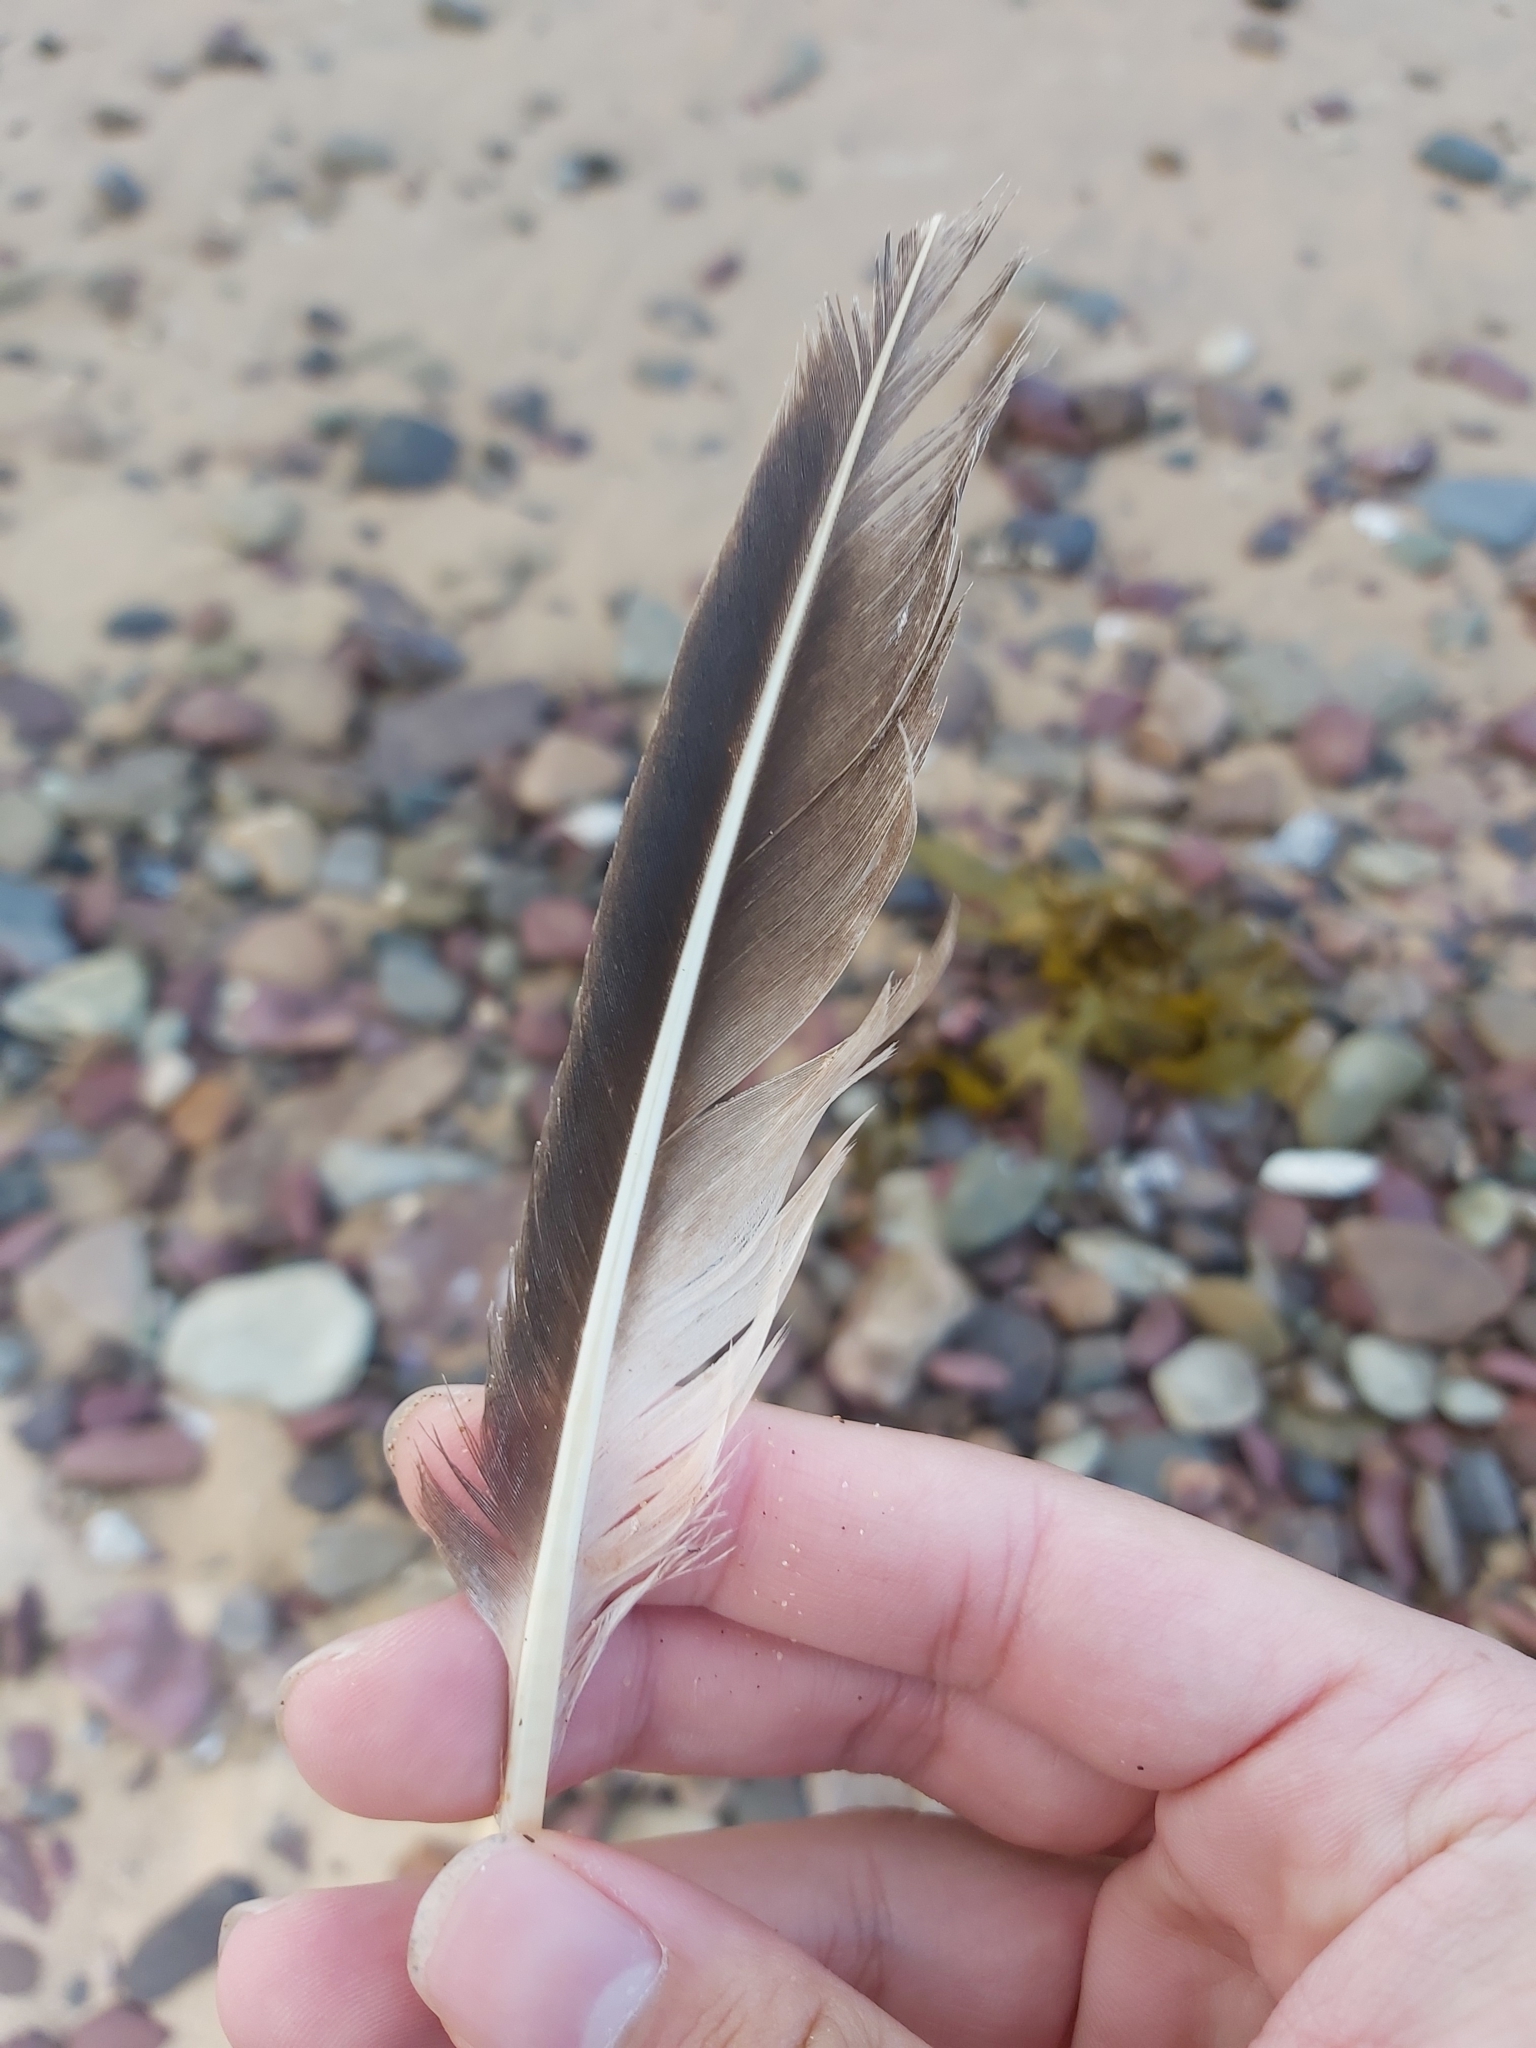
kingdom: Animalia
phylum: Chordata
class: Aves
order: Suliformes
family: Sulidae
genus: Morus
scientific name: Morus serrator
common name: Australasian gannet
